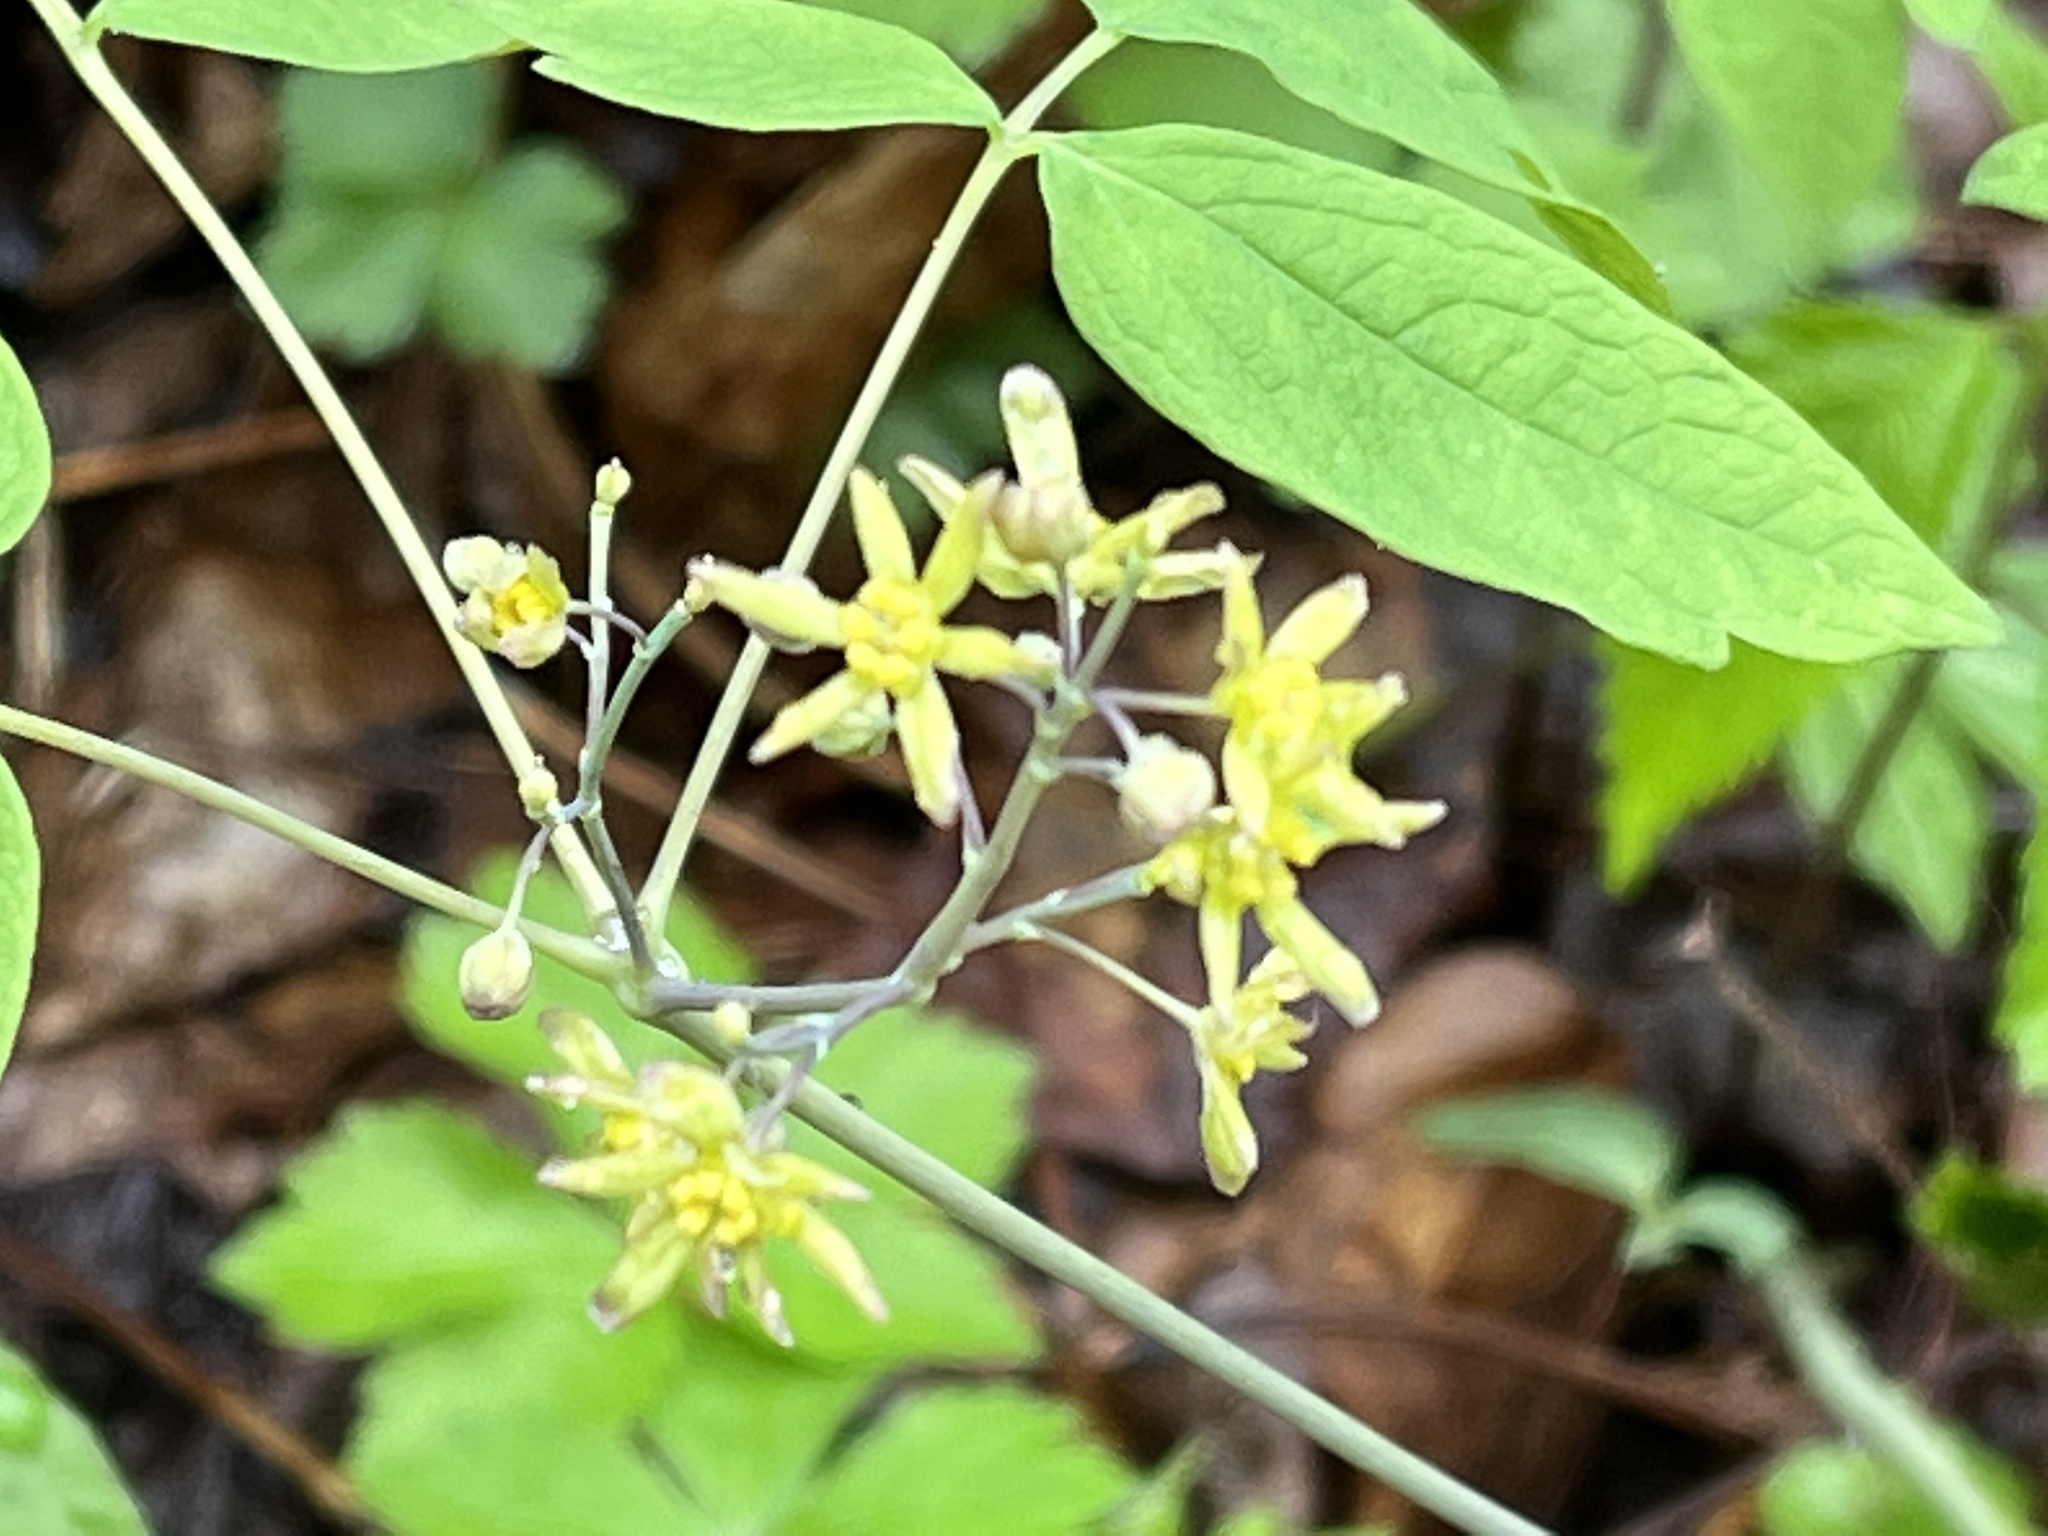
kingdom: Plantae
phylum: Tracheophyta
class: Magnoliopsida
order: Ranunculales
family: Berberidaceae
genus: Caulophyllum
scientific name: Caulophyllum thalictroides
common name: Blue cohosh
